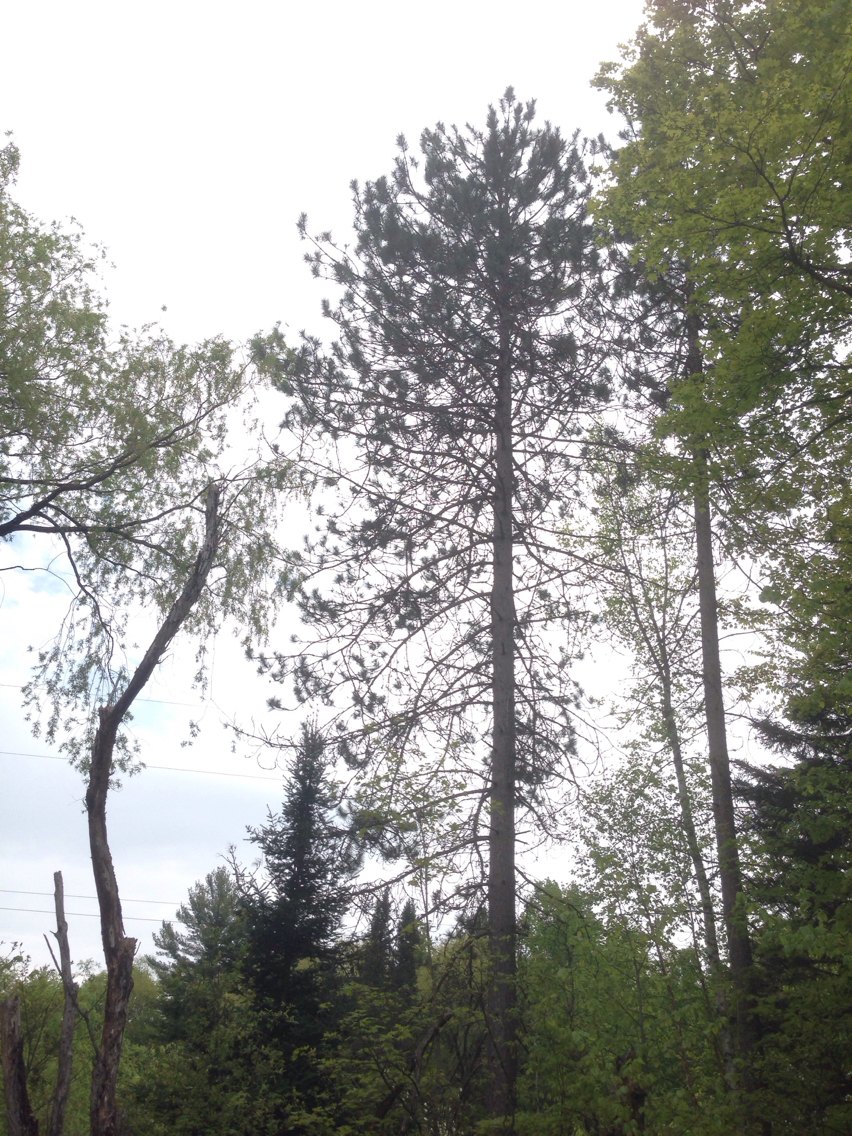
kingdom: Plantae
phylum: Tracheophyta
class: Pinopsida
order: Pinales
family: Pinaceae
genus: Pinus
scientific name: Pinus resinosa
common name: Norway pine
